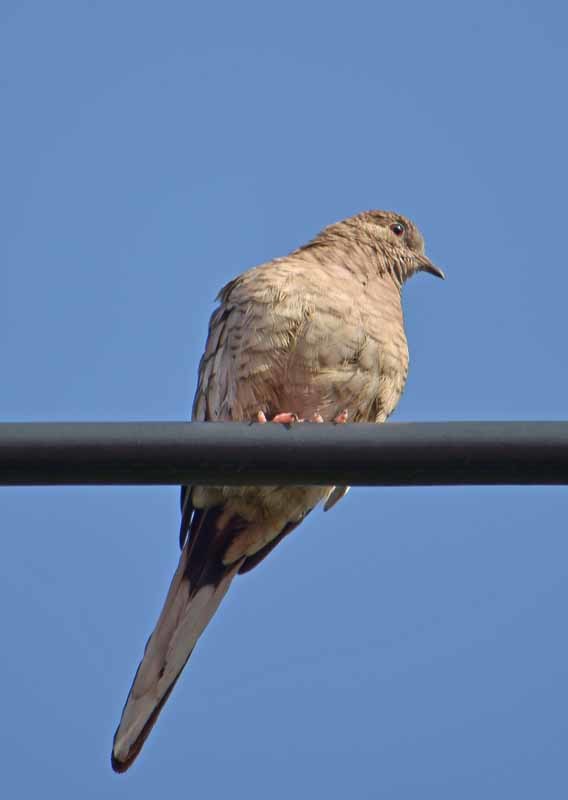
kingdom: Animalia
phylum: Chordata
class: Aves
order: Columbiformes
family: Columbidae
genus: Columbina
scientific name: Columbina inca
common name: Inca dove
